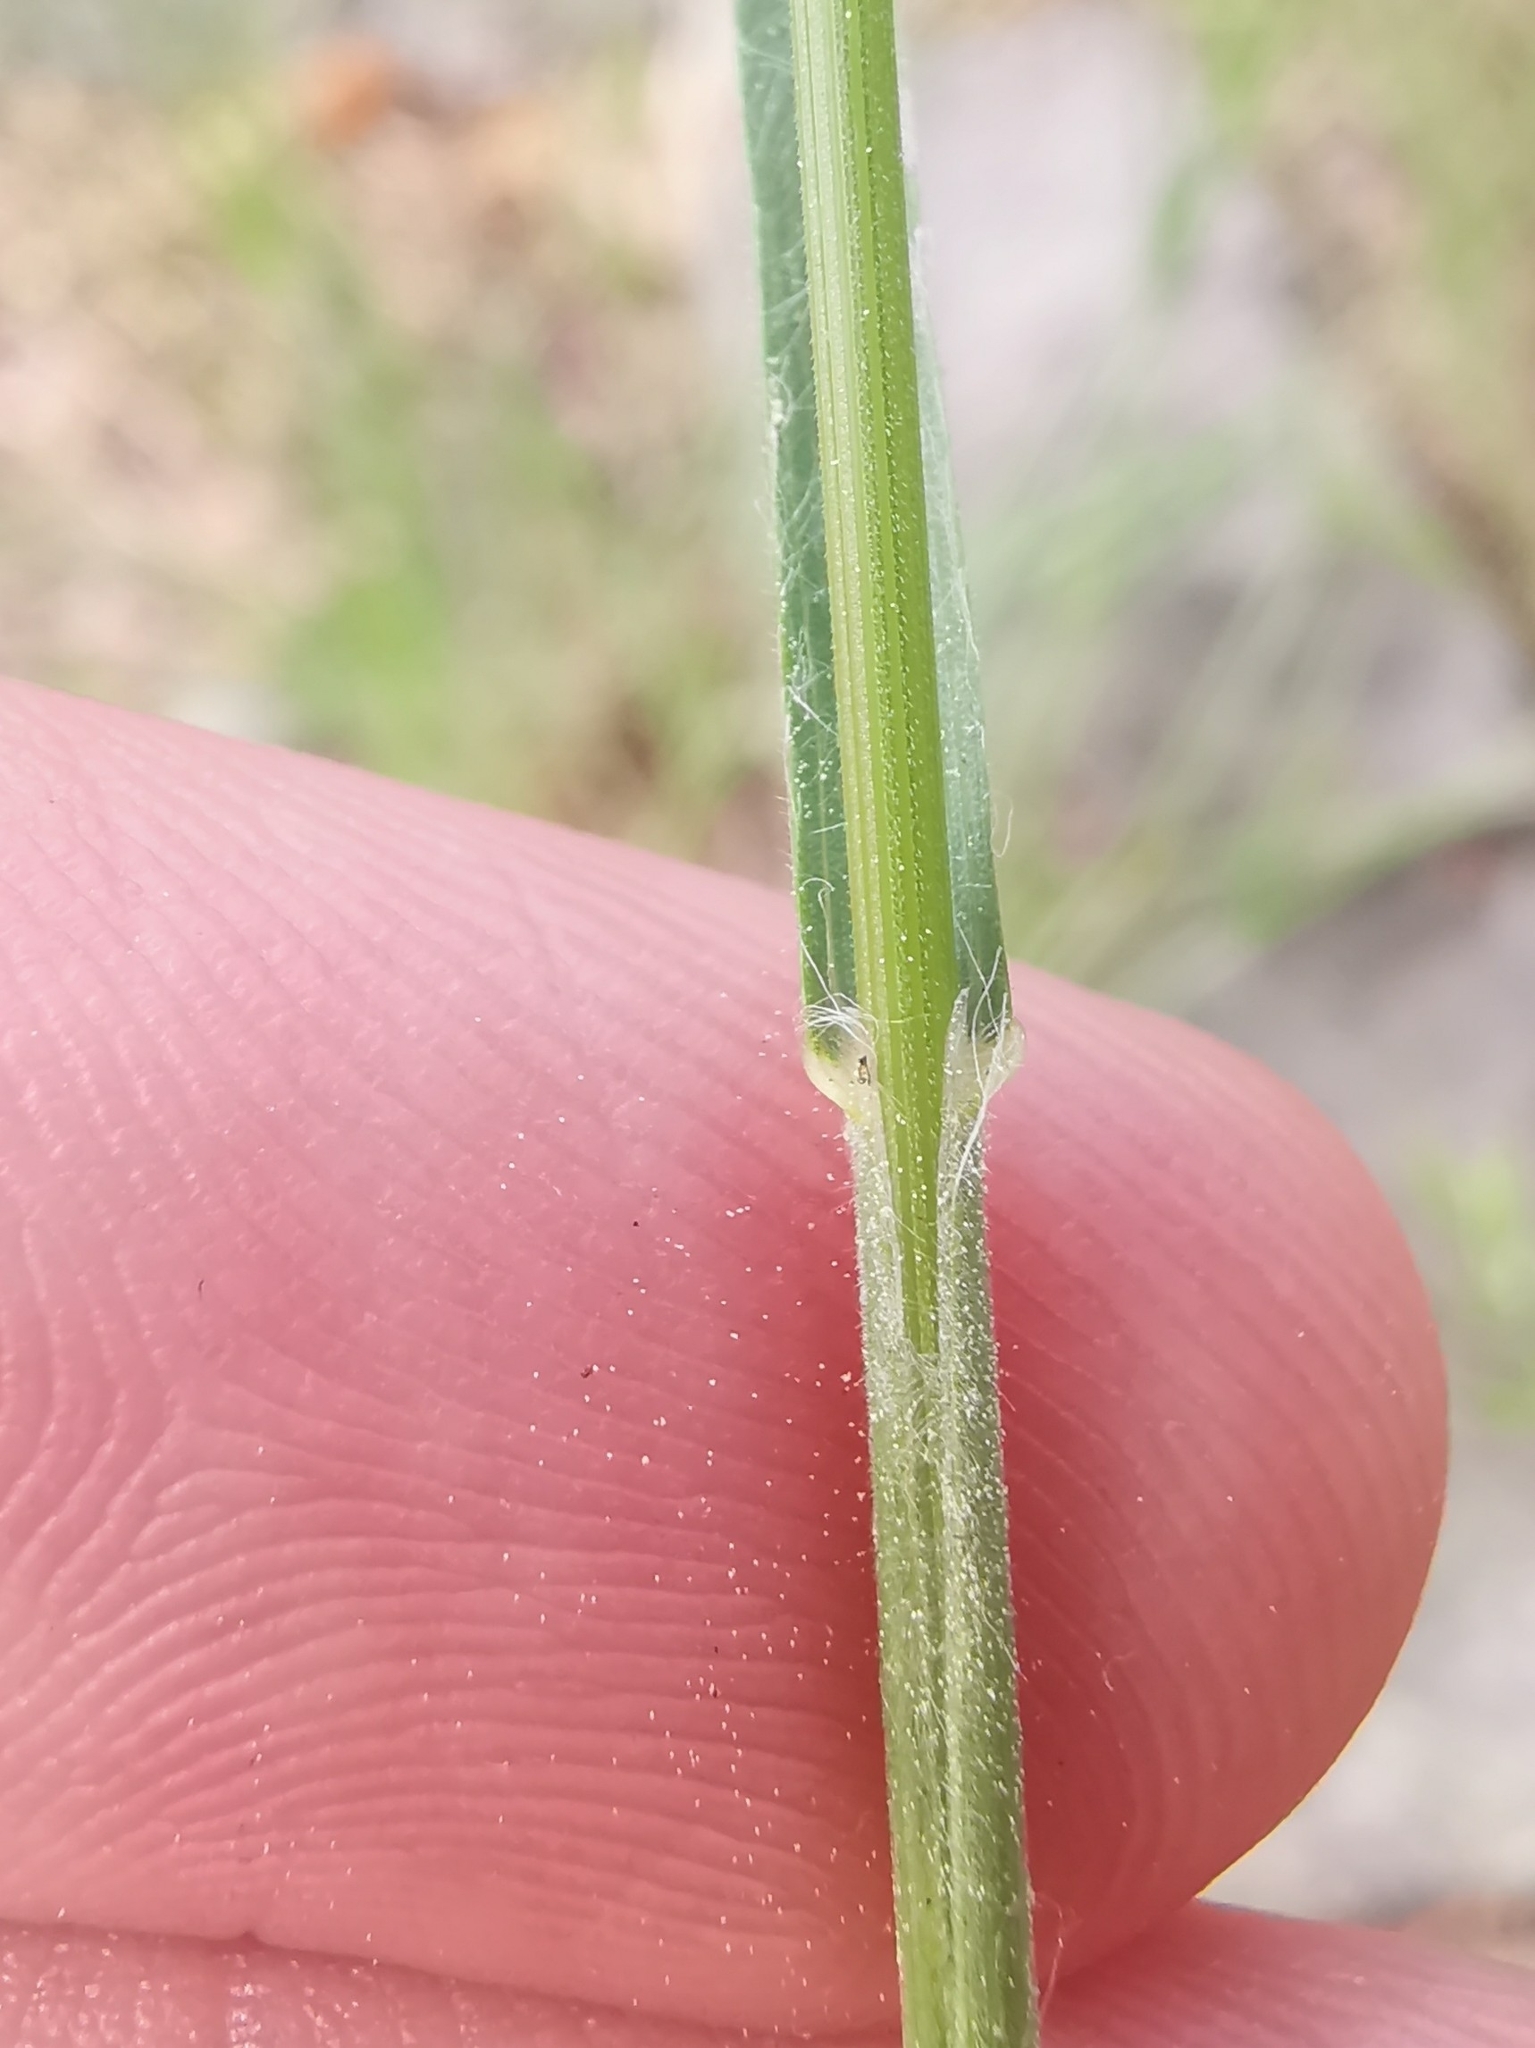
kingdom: Plantae
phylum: Tracheophyta
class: Liliopsida
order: Poales
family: Poaceae
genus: Bromus
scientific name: Bromus hordeaceus
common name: Soft brome
